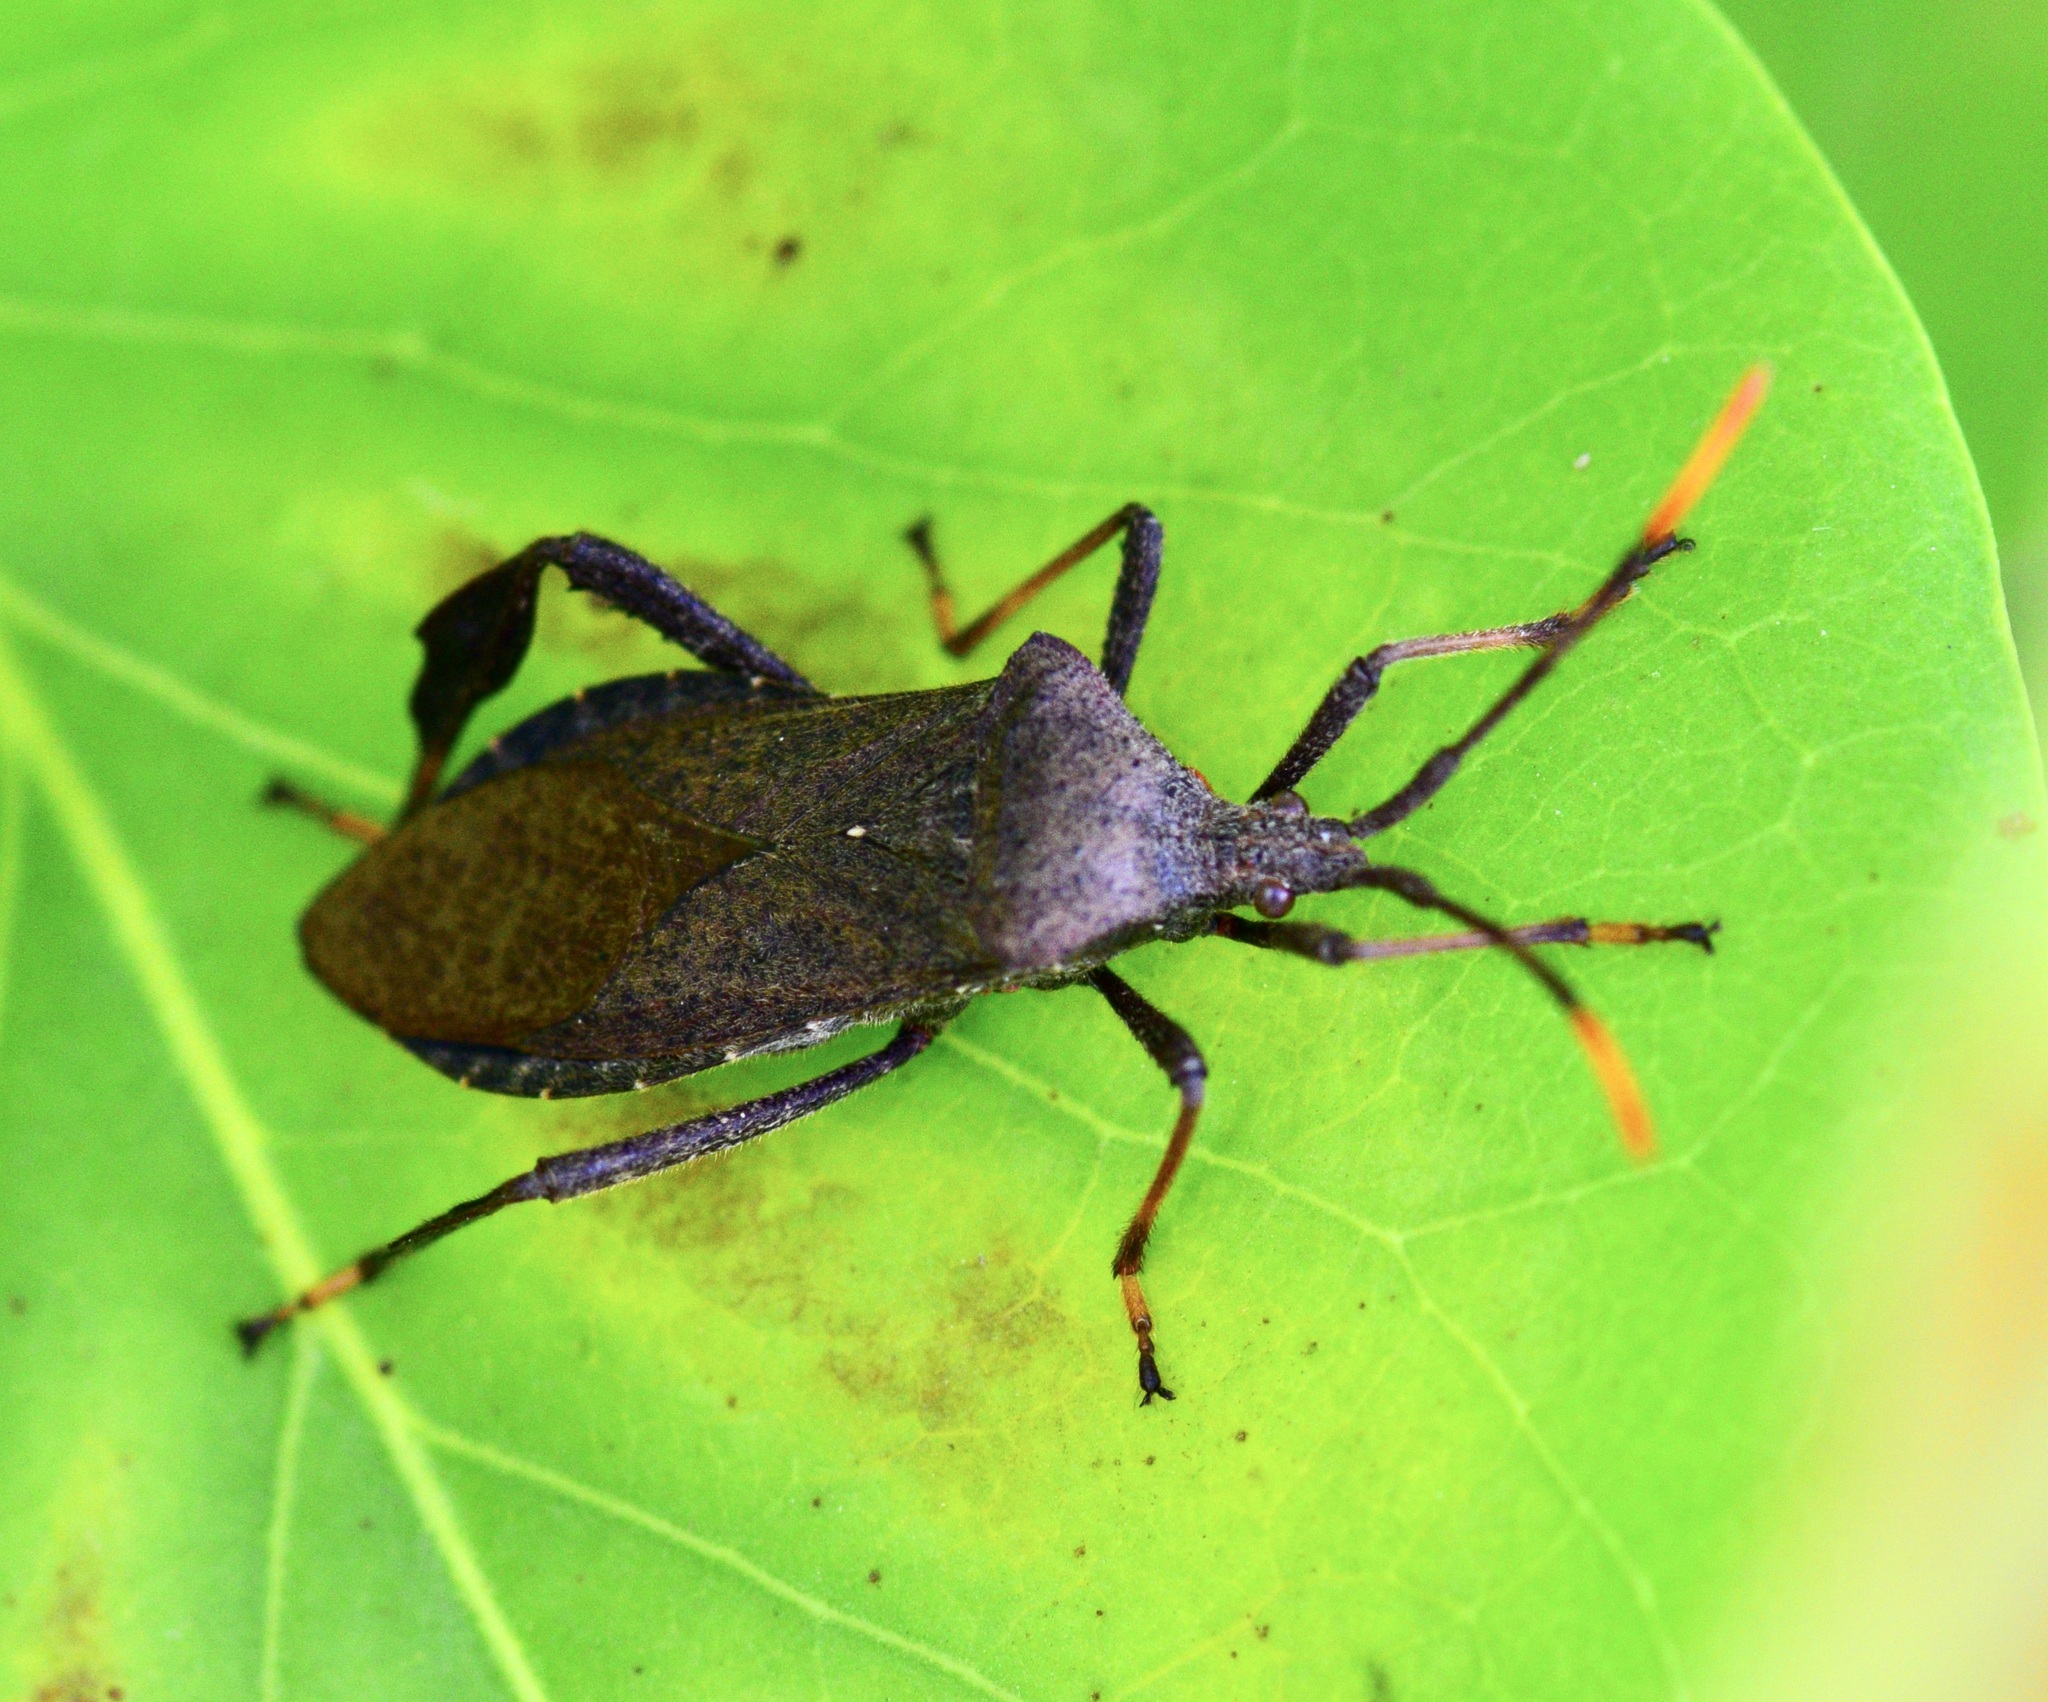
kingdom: Animalia
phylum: Arthropoda
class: Insecta
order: Hemiptera
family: Coreidae
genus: Acanthocephala
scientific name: Acanthocephala terminalis
